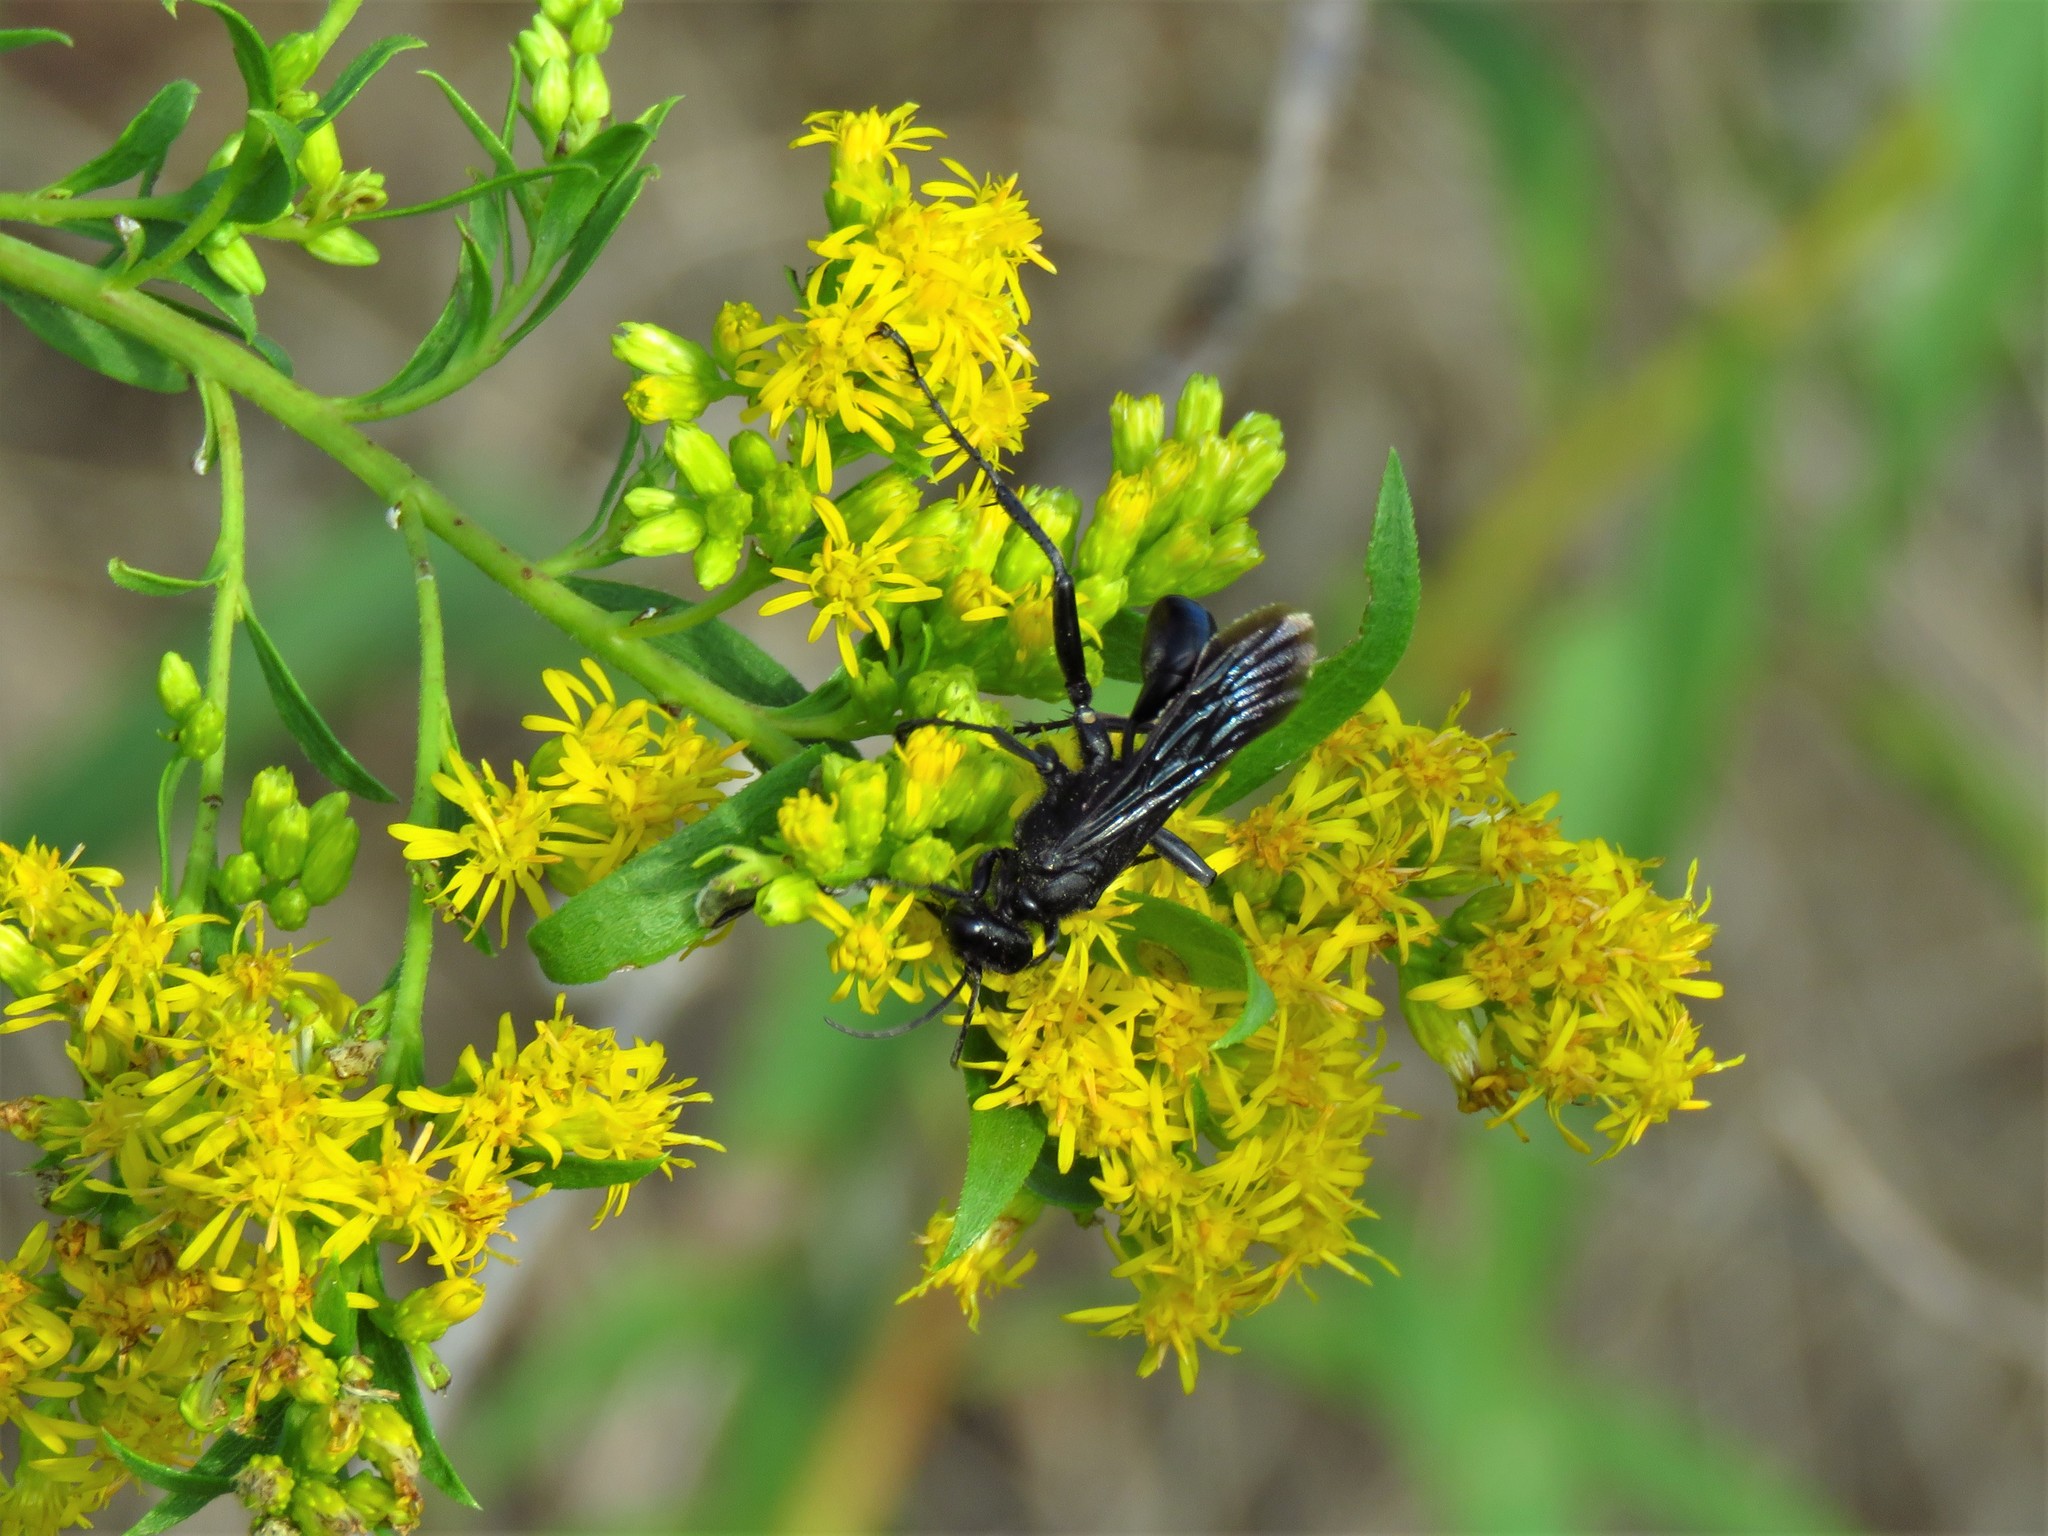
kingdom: Animalia
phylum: Arthropoda
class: Insecta
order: Hymenoptera
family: Sphecidae
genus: Sphex
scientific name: Sphex pensylvanicus
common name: Great black digger wasp
